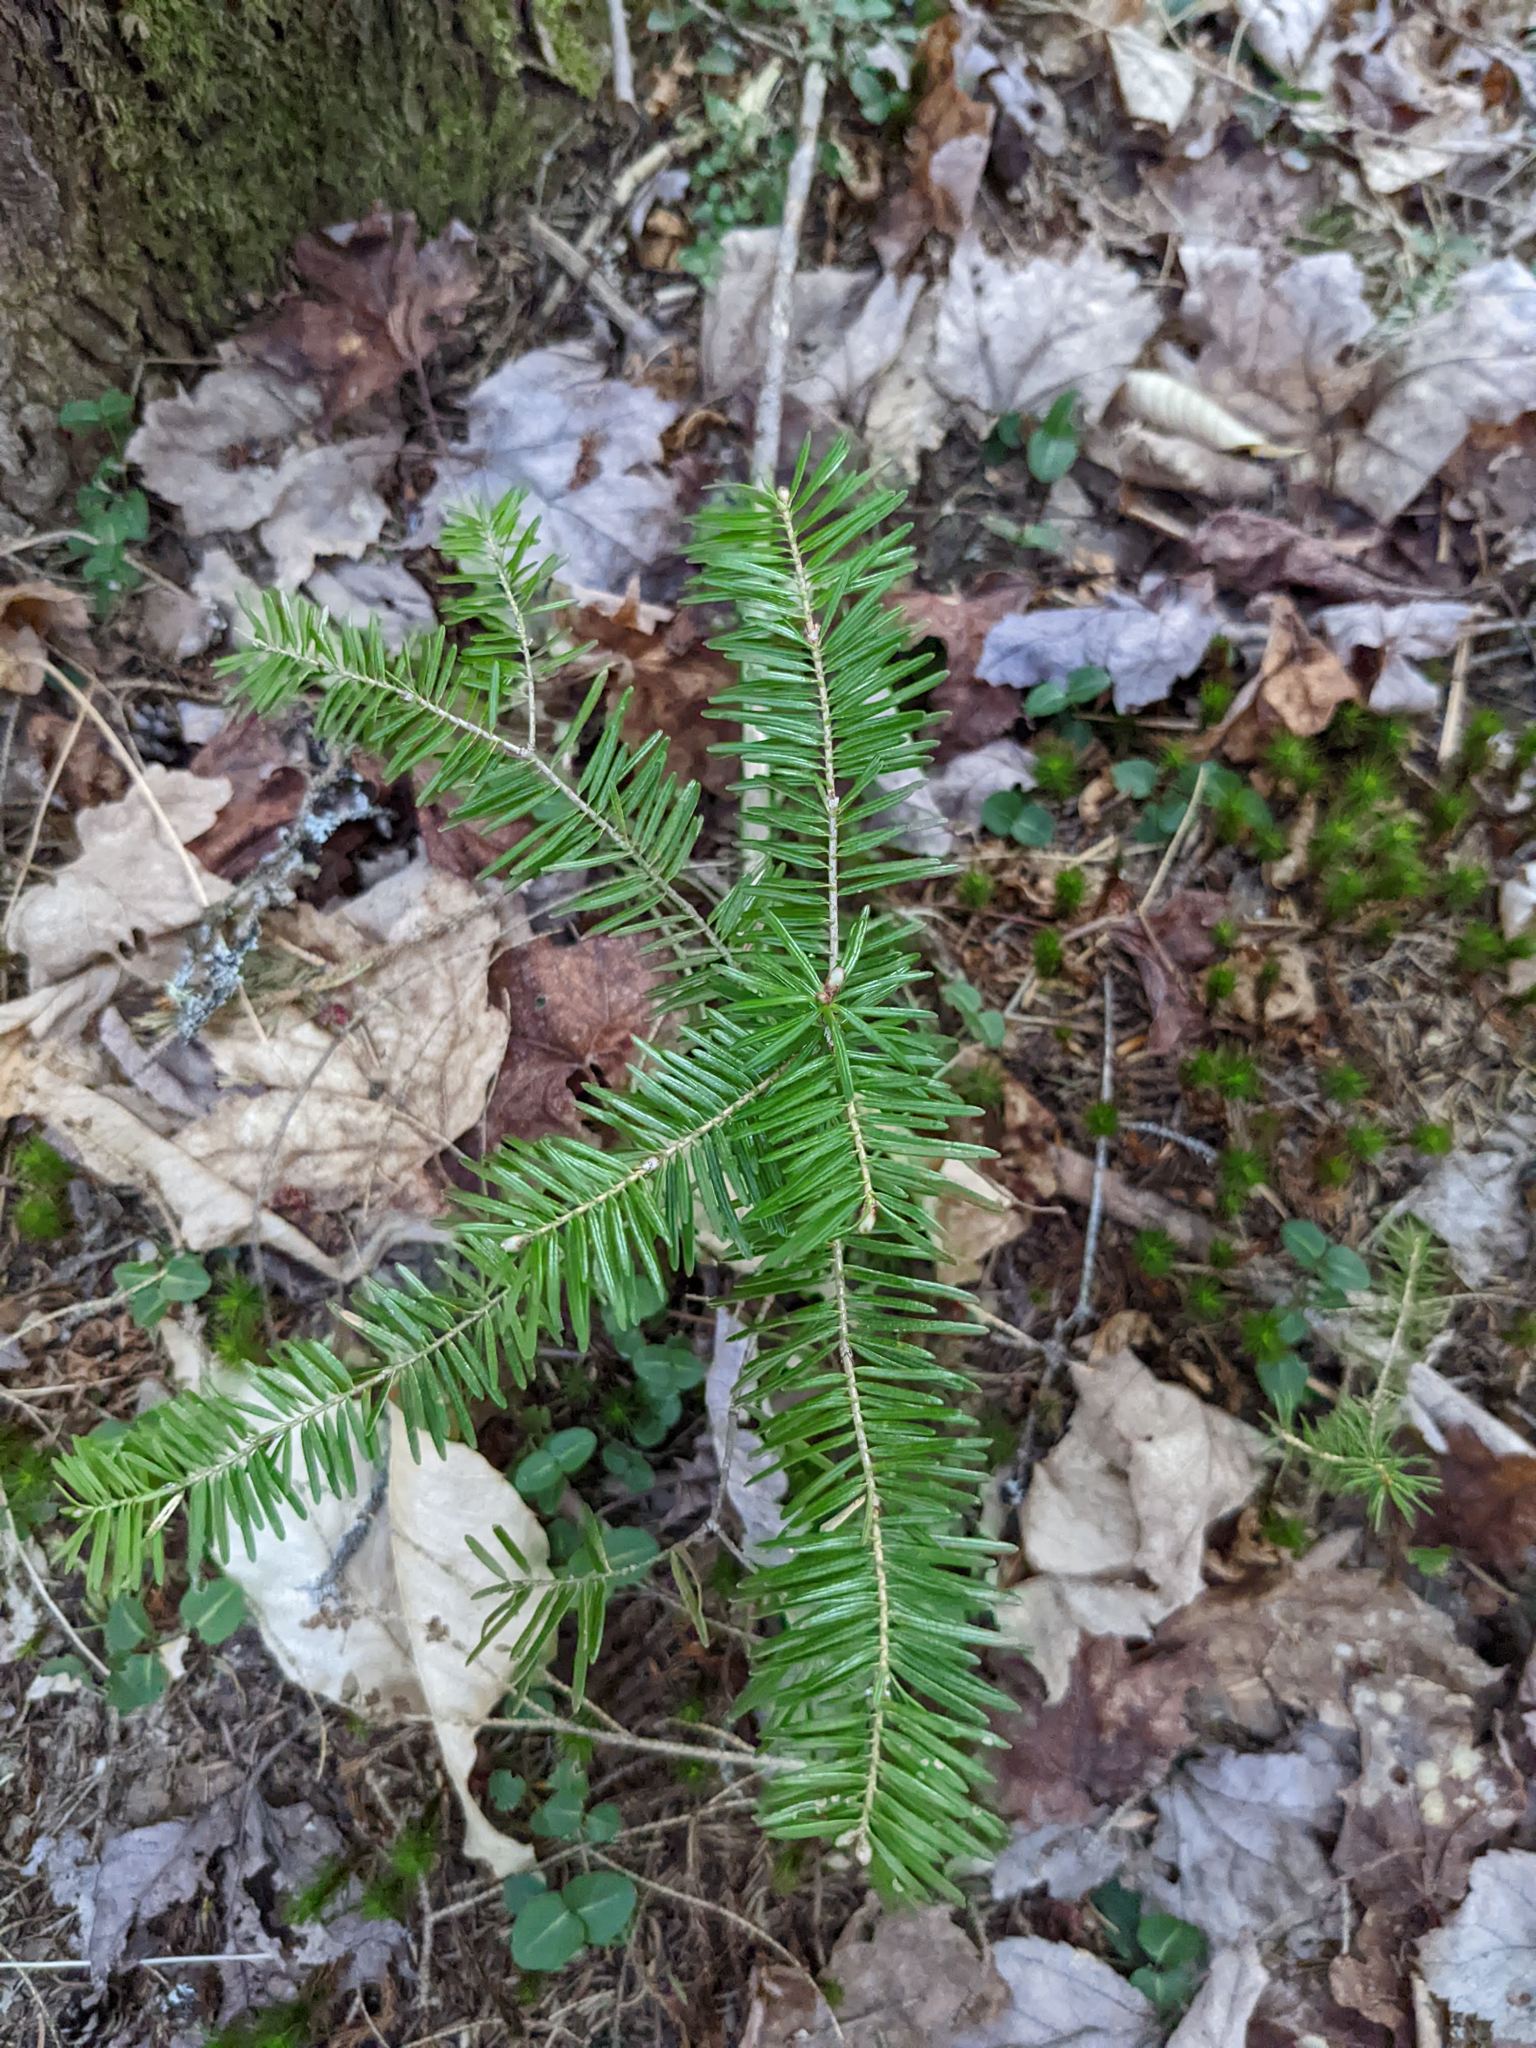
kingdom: Plantae
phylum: Tracheophyta
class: Pinopsida
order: Pinales
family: Pinaceae
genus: Abies
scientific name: Abies balsamea
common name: Balsam fir
